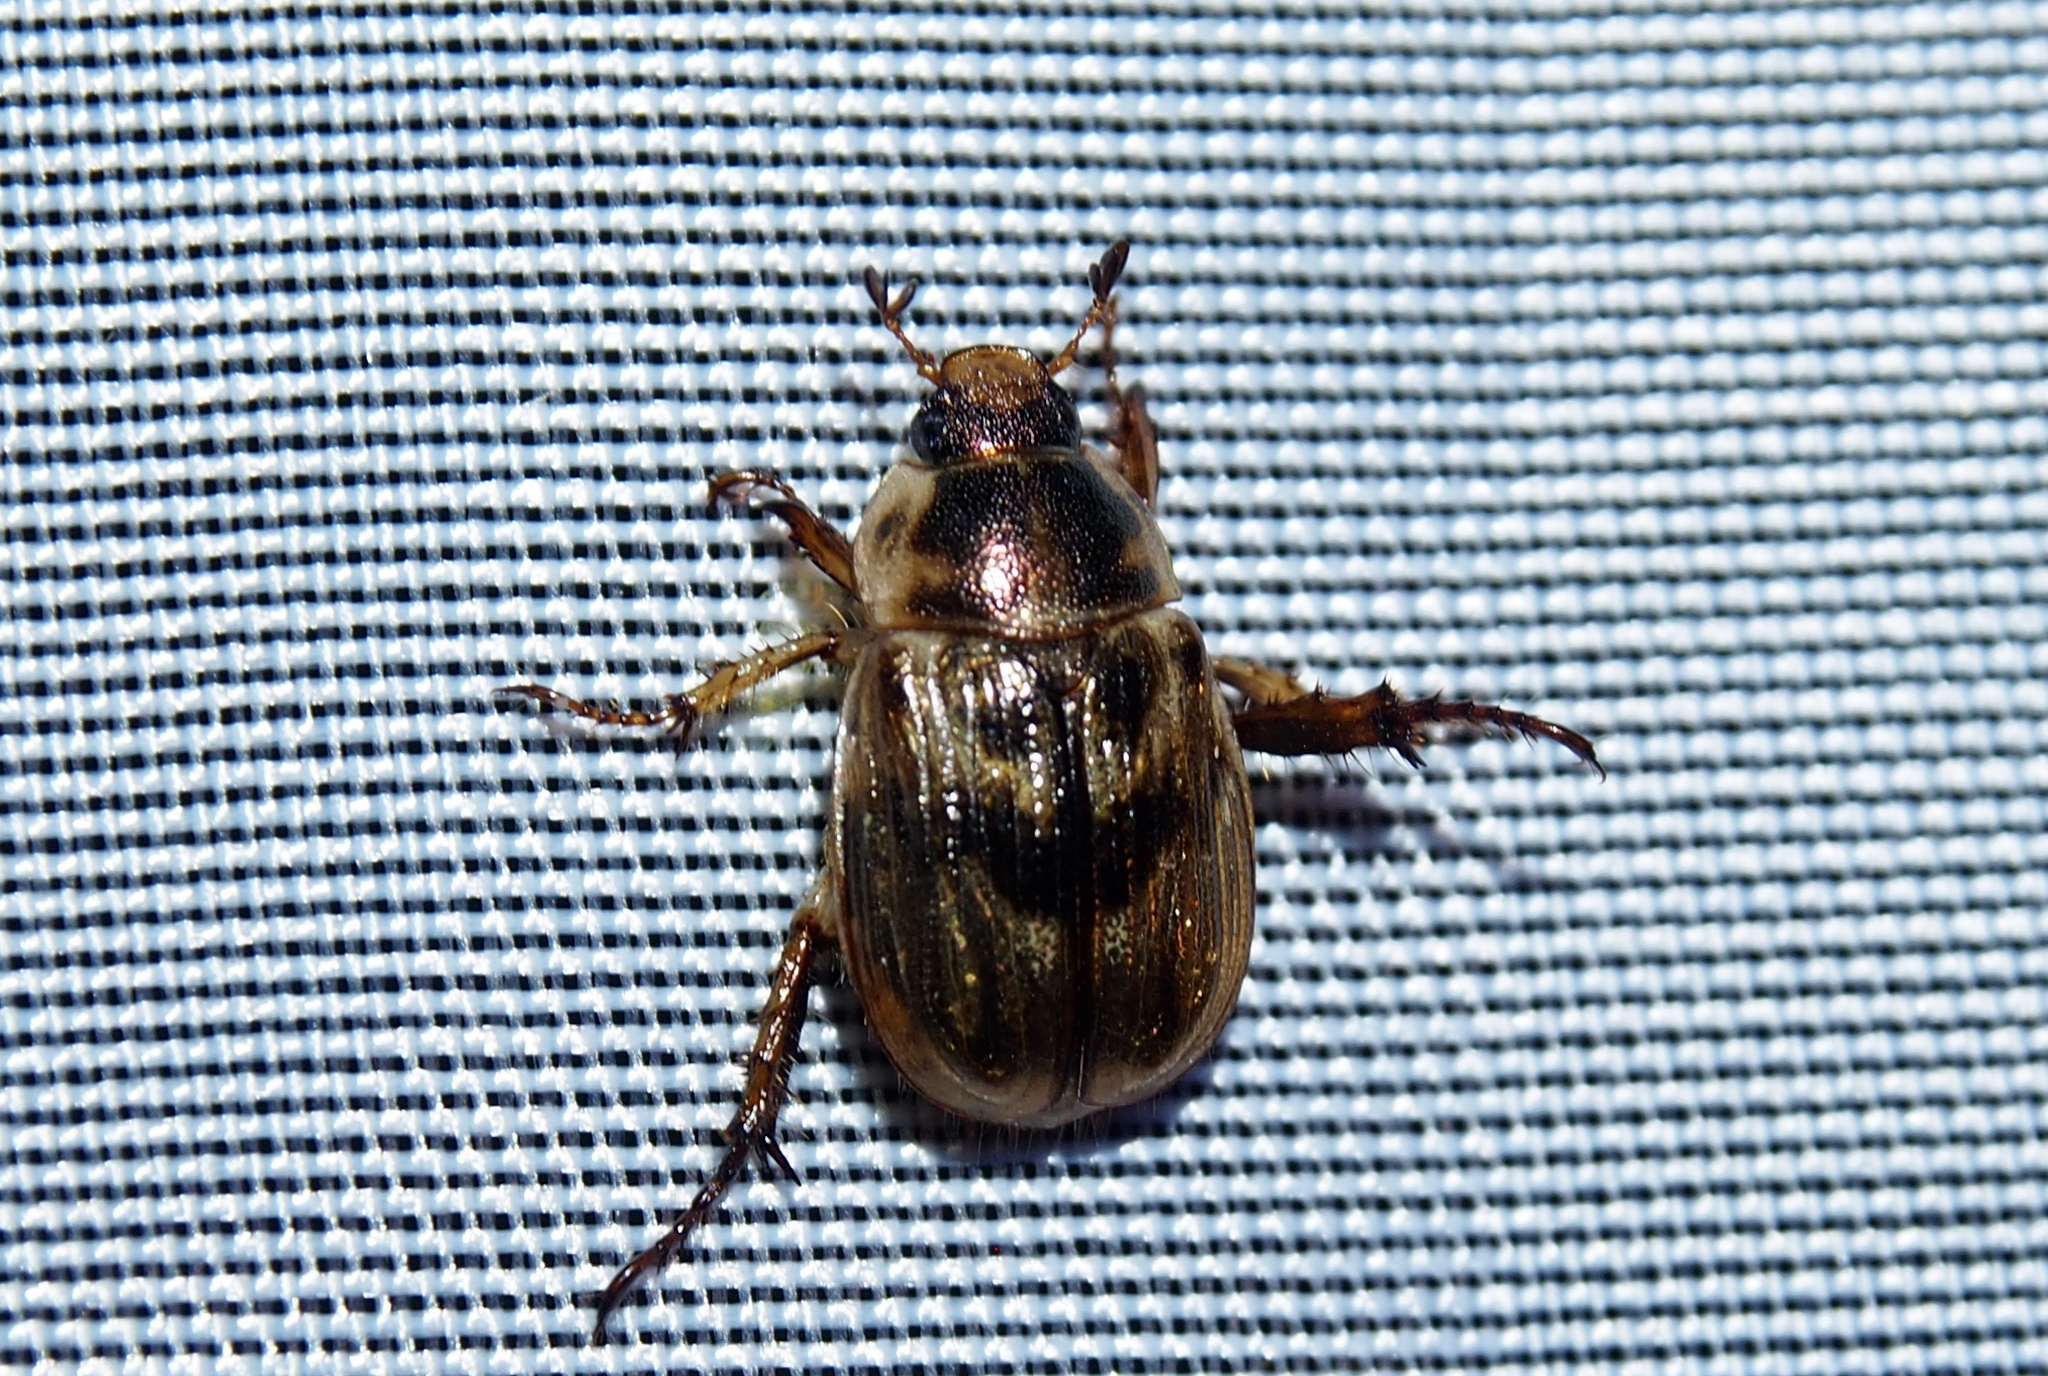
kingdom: Animalia
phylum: Arthropoda
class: Insecta
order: Coleoptera
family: Scarabaeidae
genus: Exomala
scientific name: Exomala orientalis
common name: Oriental beetle
